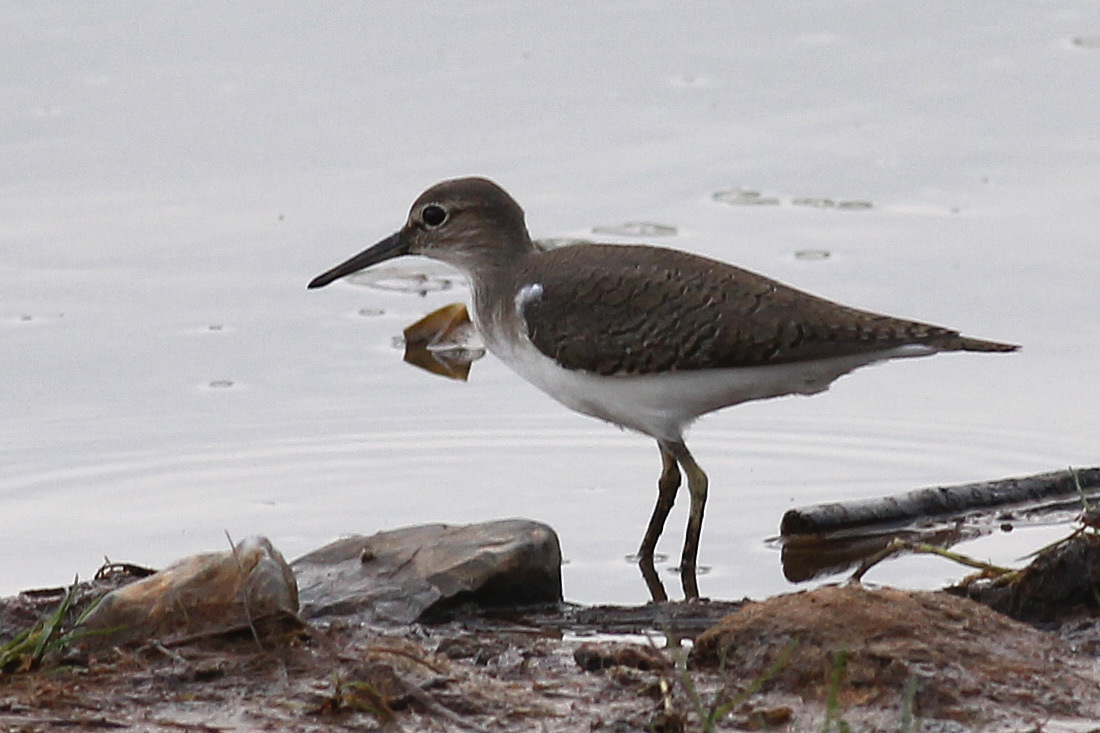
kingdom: Animalia
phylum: Chordata
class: Aves
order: Charadriiformes
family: Scolopacidae
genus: Actitis
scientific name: Actitis hypoleucos
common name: Common sandpiper
